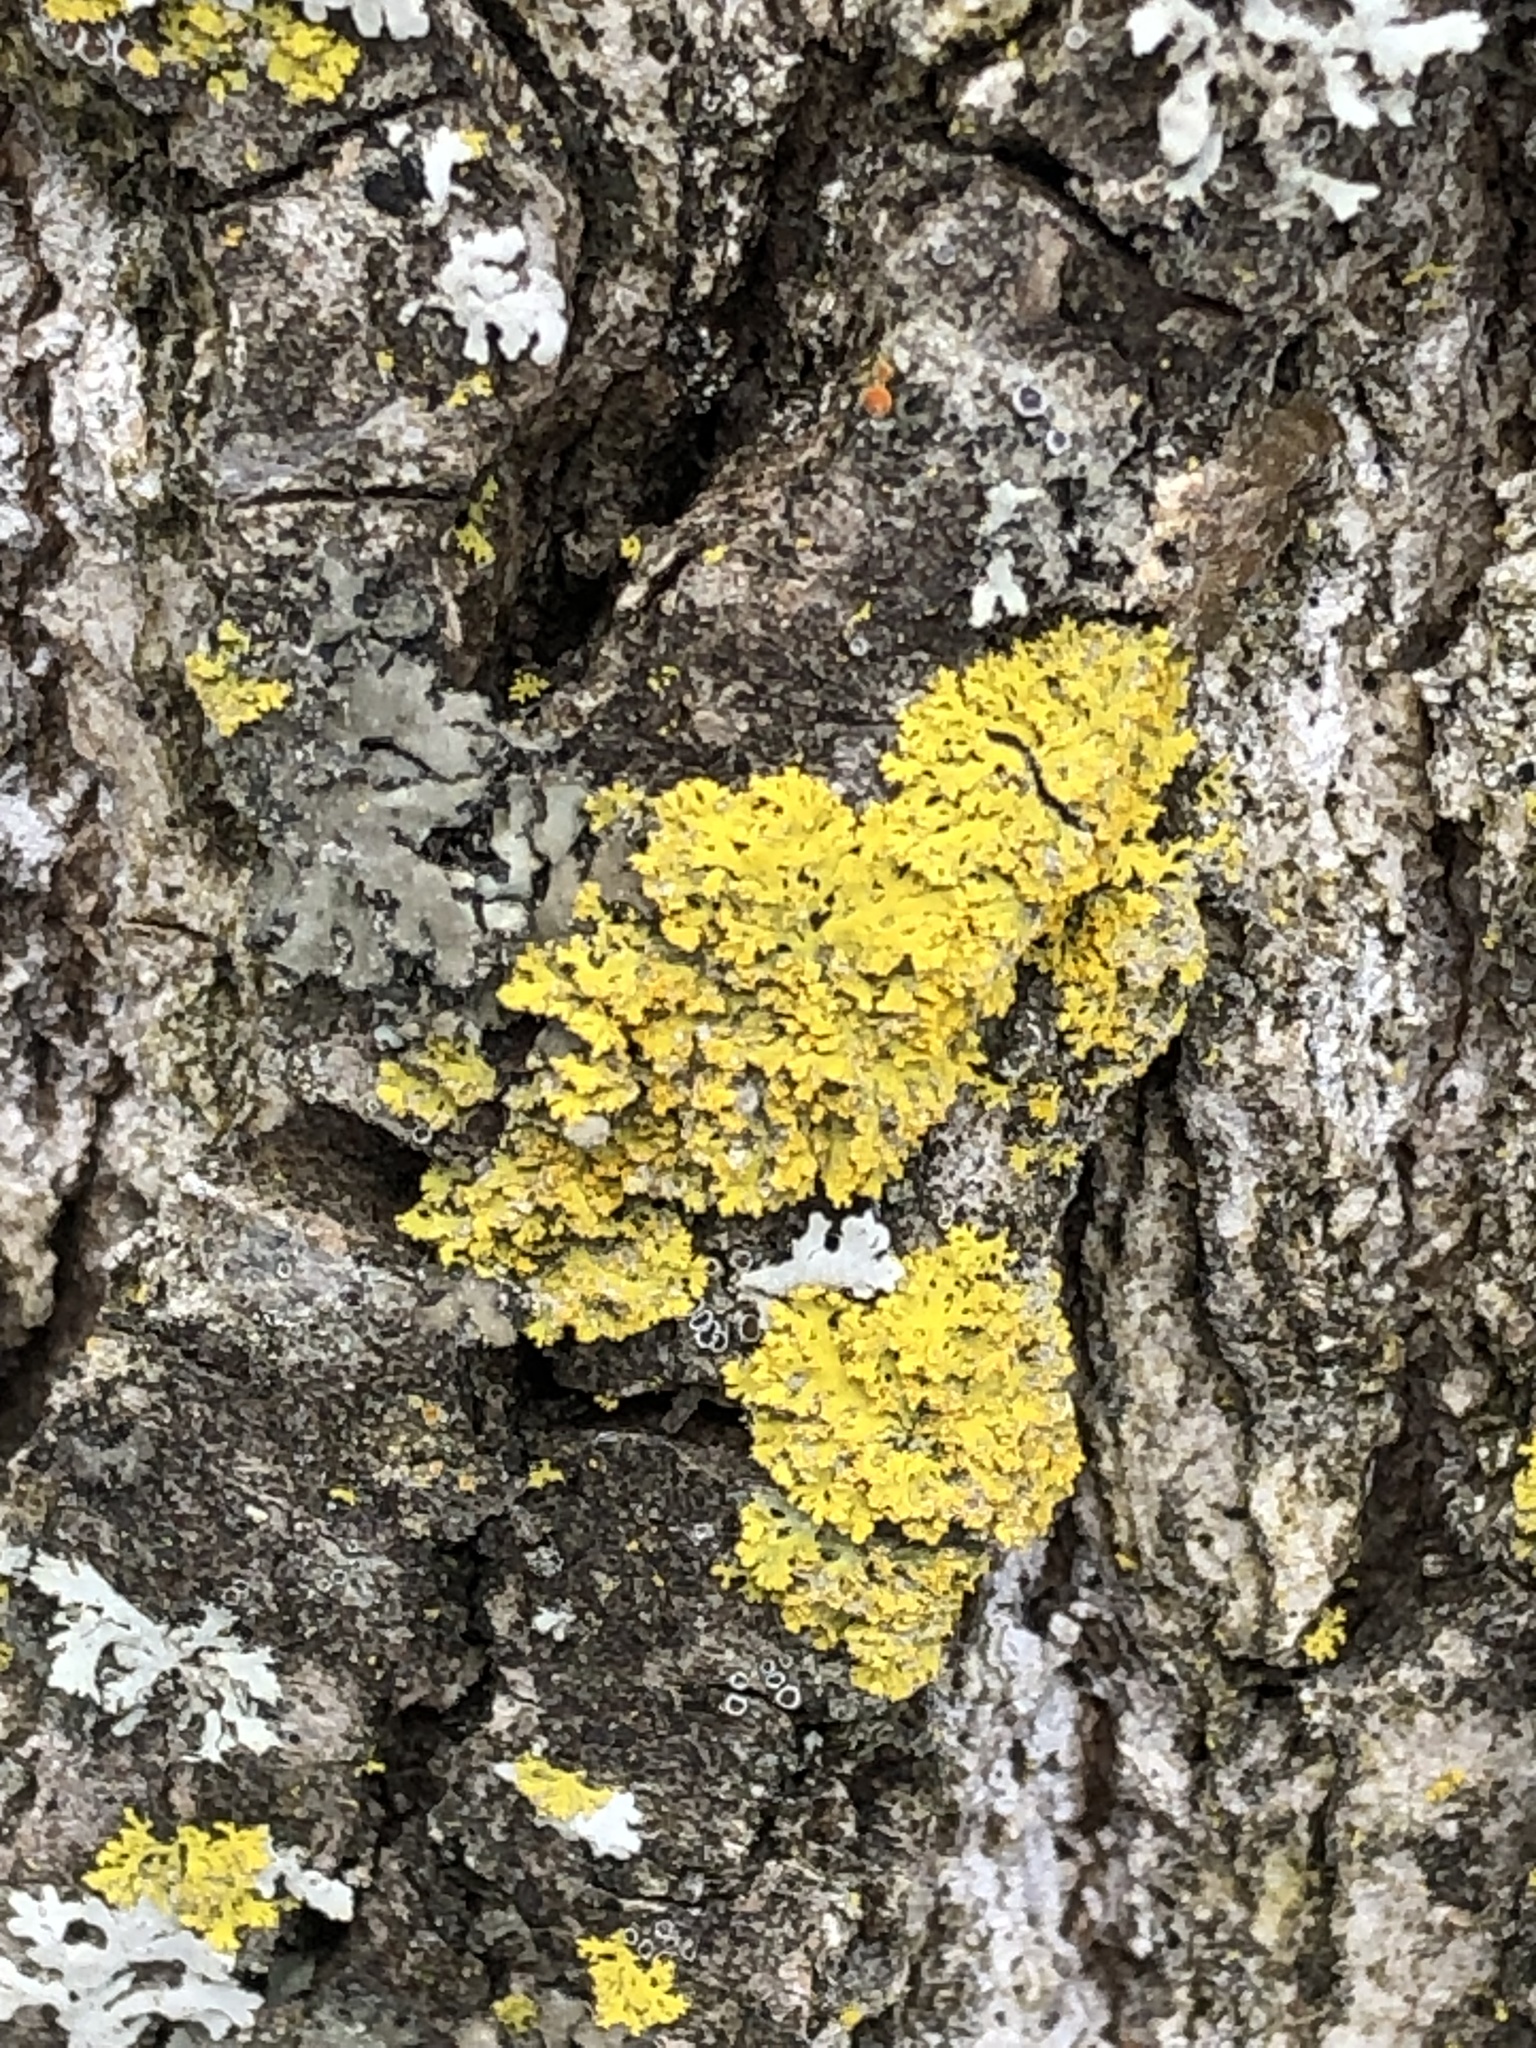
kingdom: Fungi
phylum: Ascomycota
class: Lecanoromycetes
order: Teloschistales
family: Teloschistaceae
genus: Gallowayella
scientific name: Gallowayella weberi
